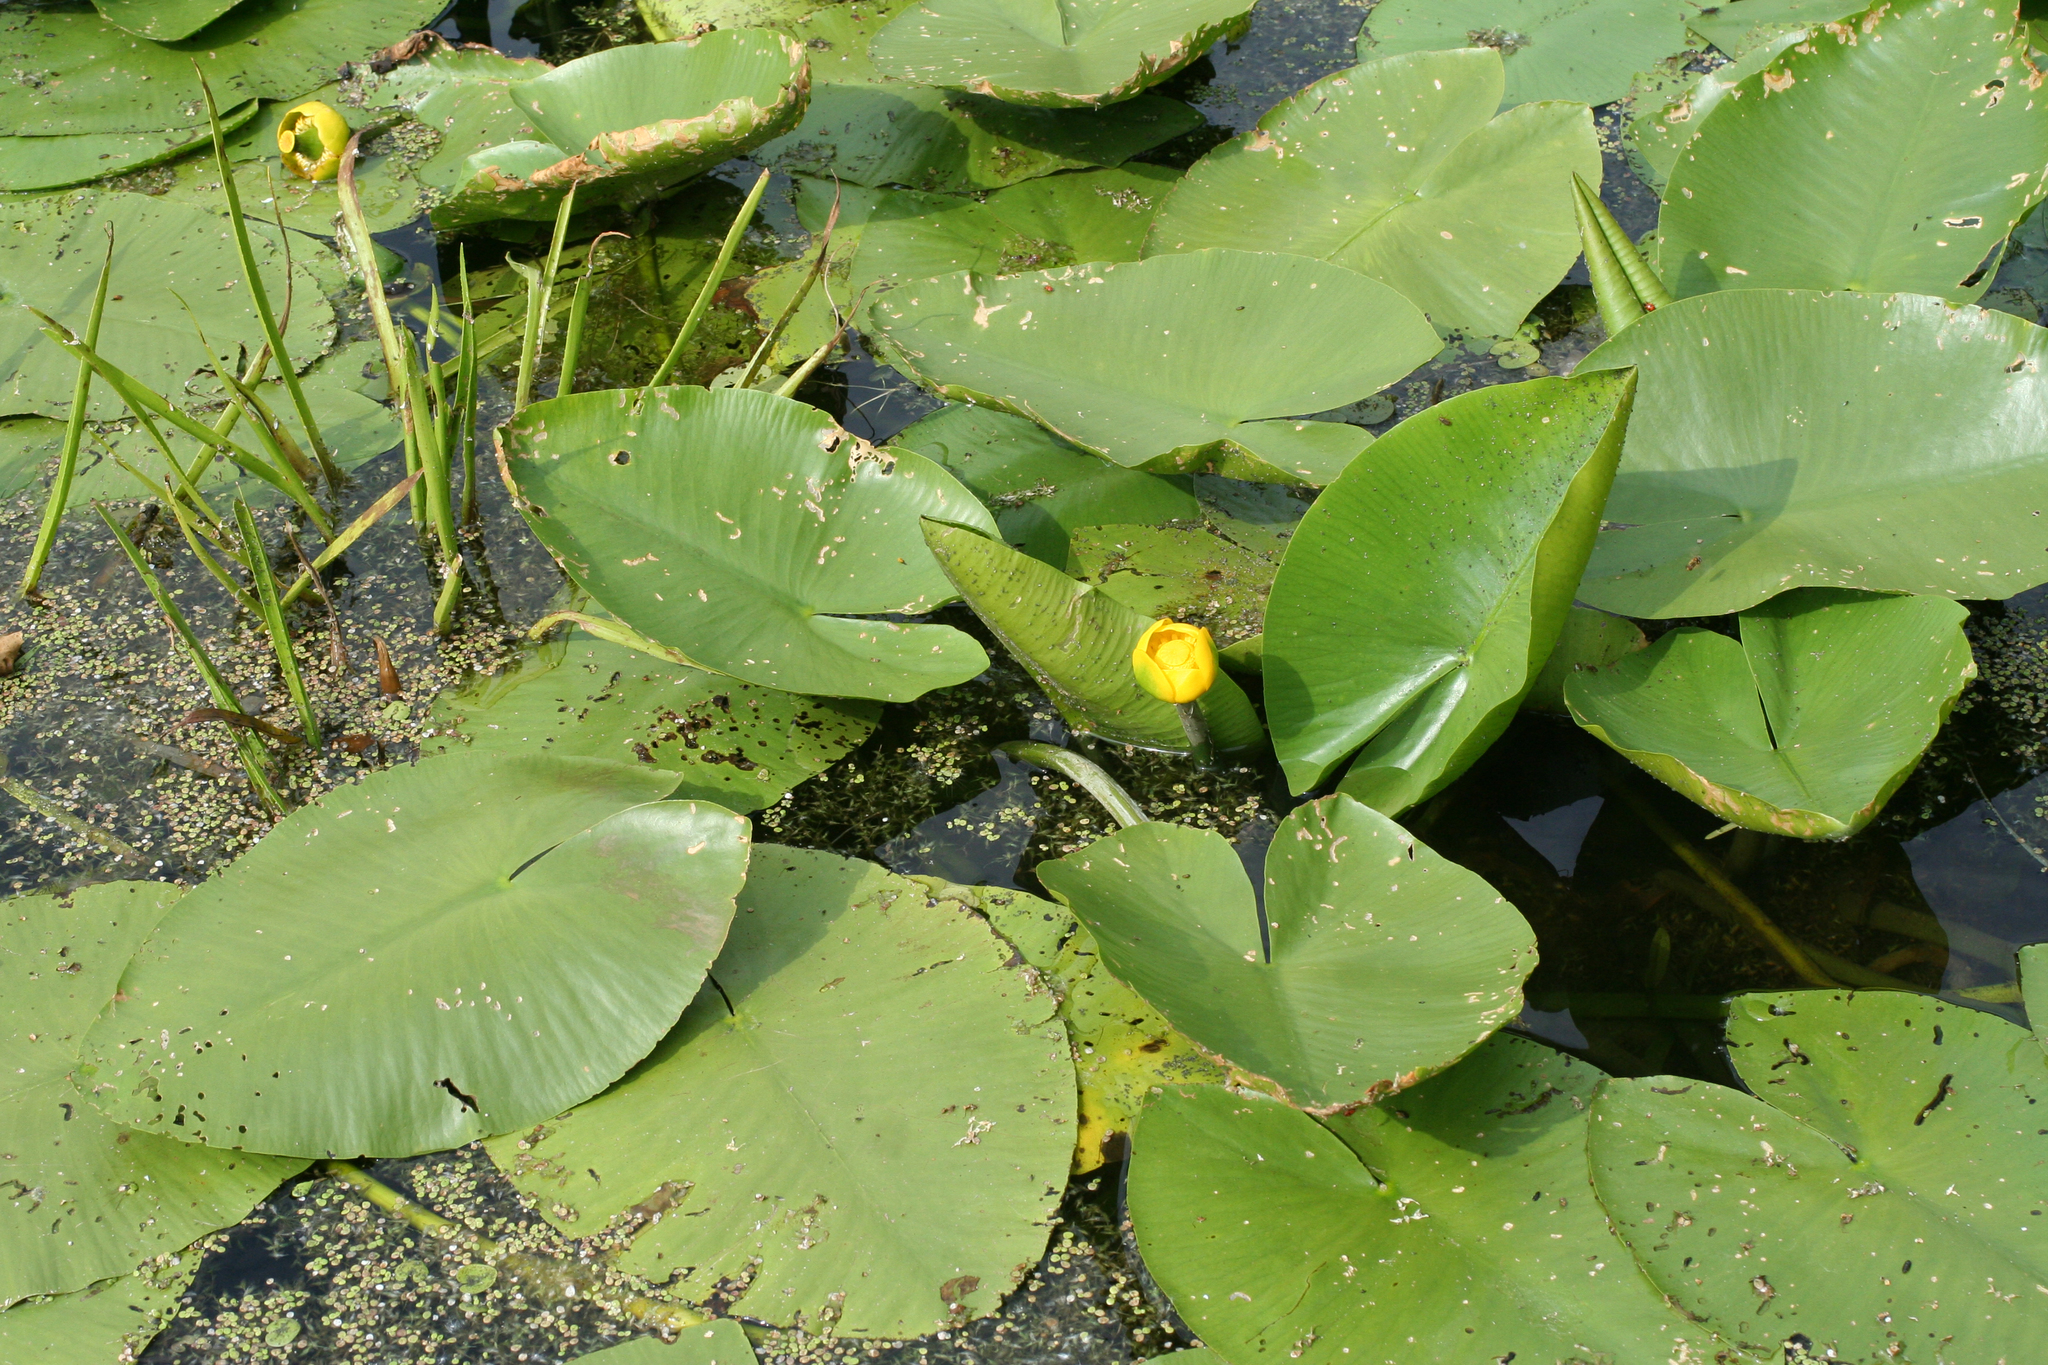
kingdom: Plantae
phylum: Tracheophyta
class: Magnoliopsida
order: Nymphaeales
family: Nymphaeaceae
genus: Nuphar
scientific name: Nuphar lutea
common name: Yellow water-lily
